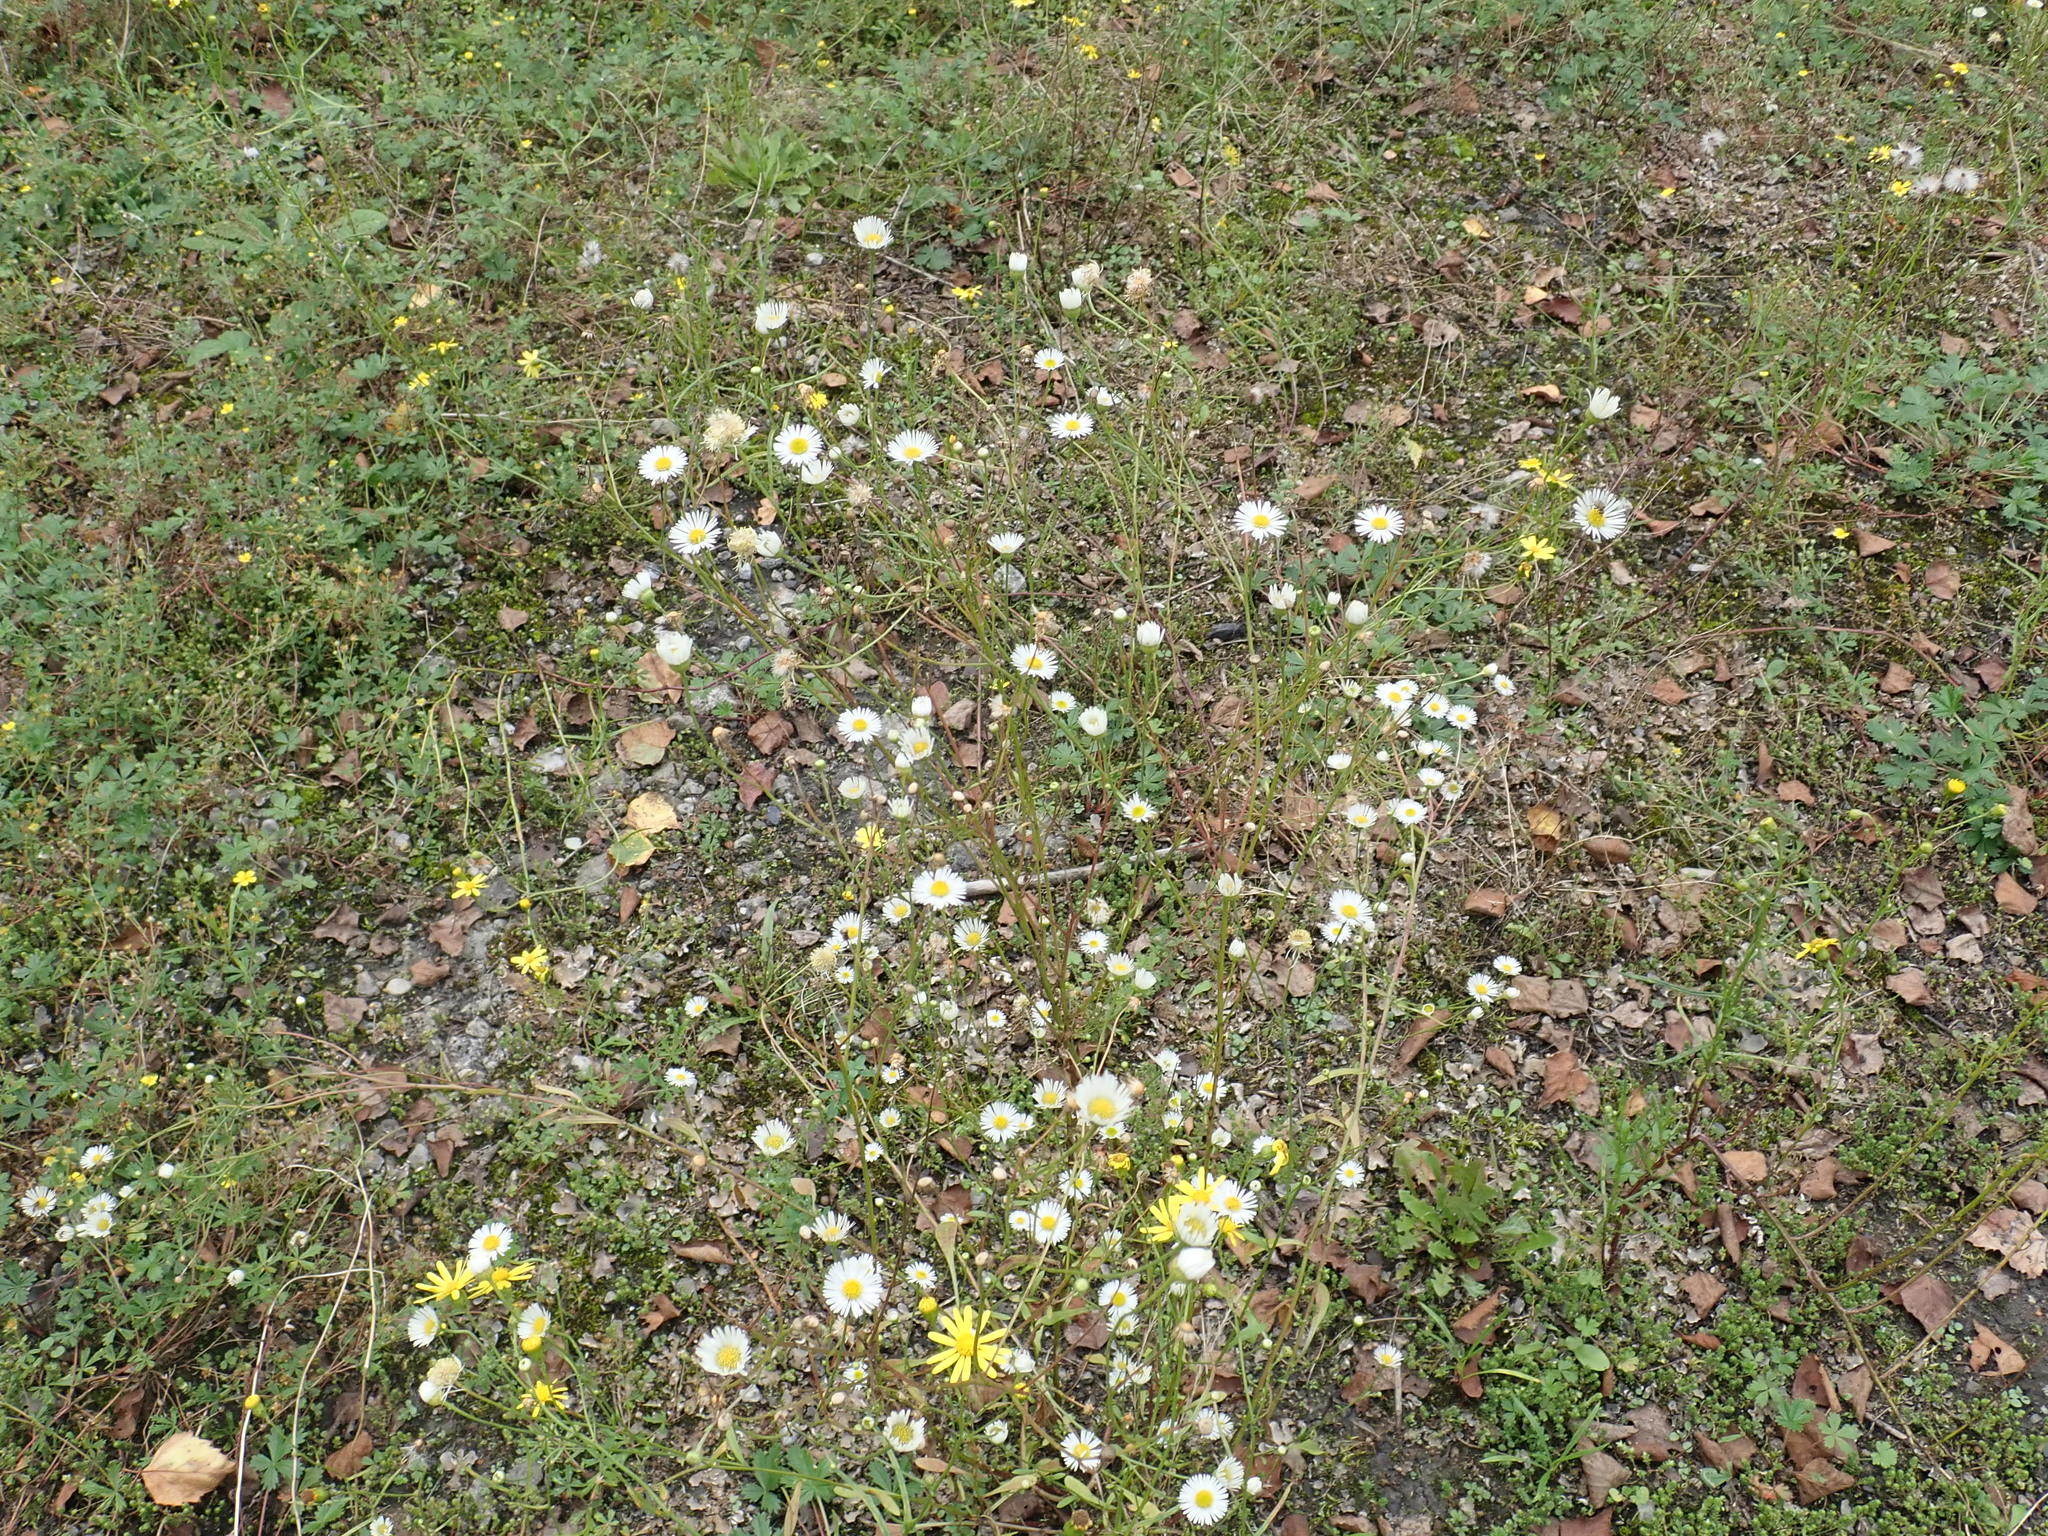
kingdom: Plantae
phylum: Tracheophyta
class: Magnoliopsida
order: Asterales
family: Asteraceae
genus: Erigeron
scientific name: Erigeron annuus
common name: Tall fleabane
